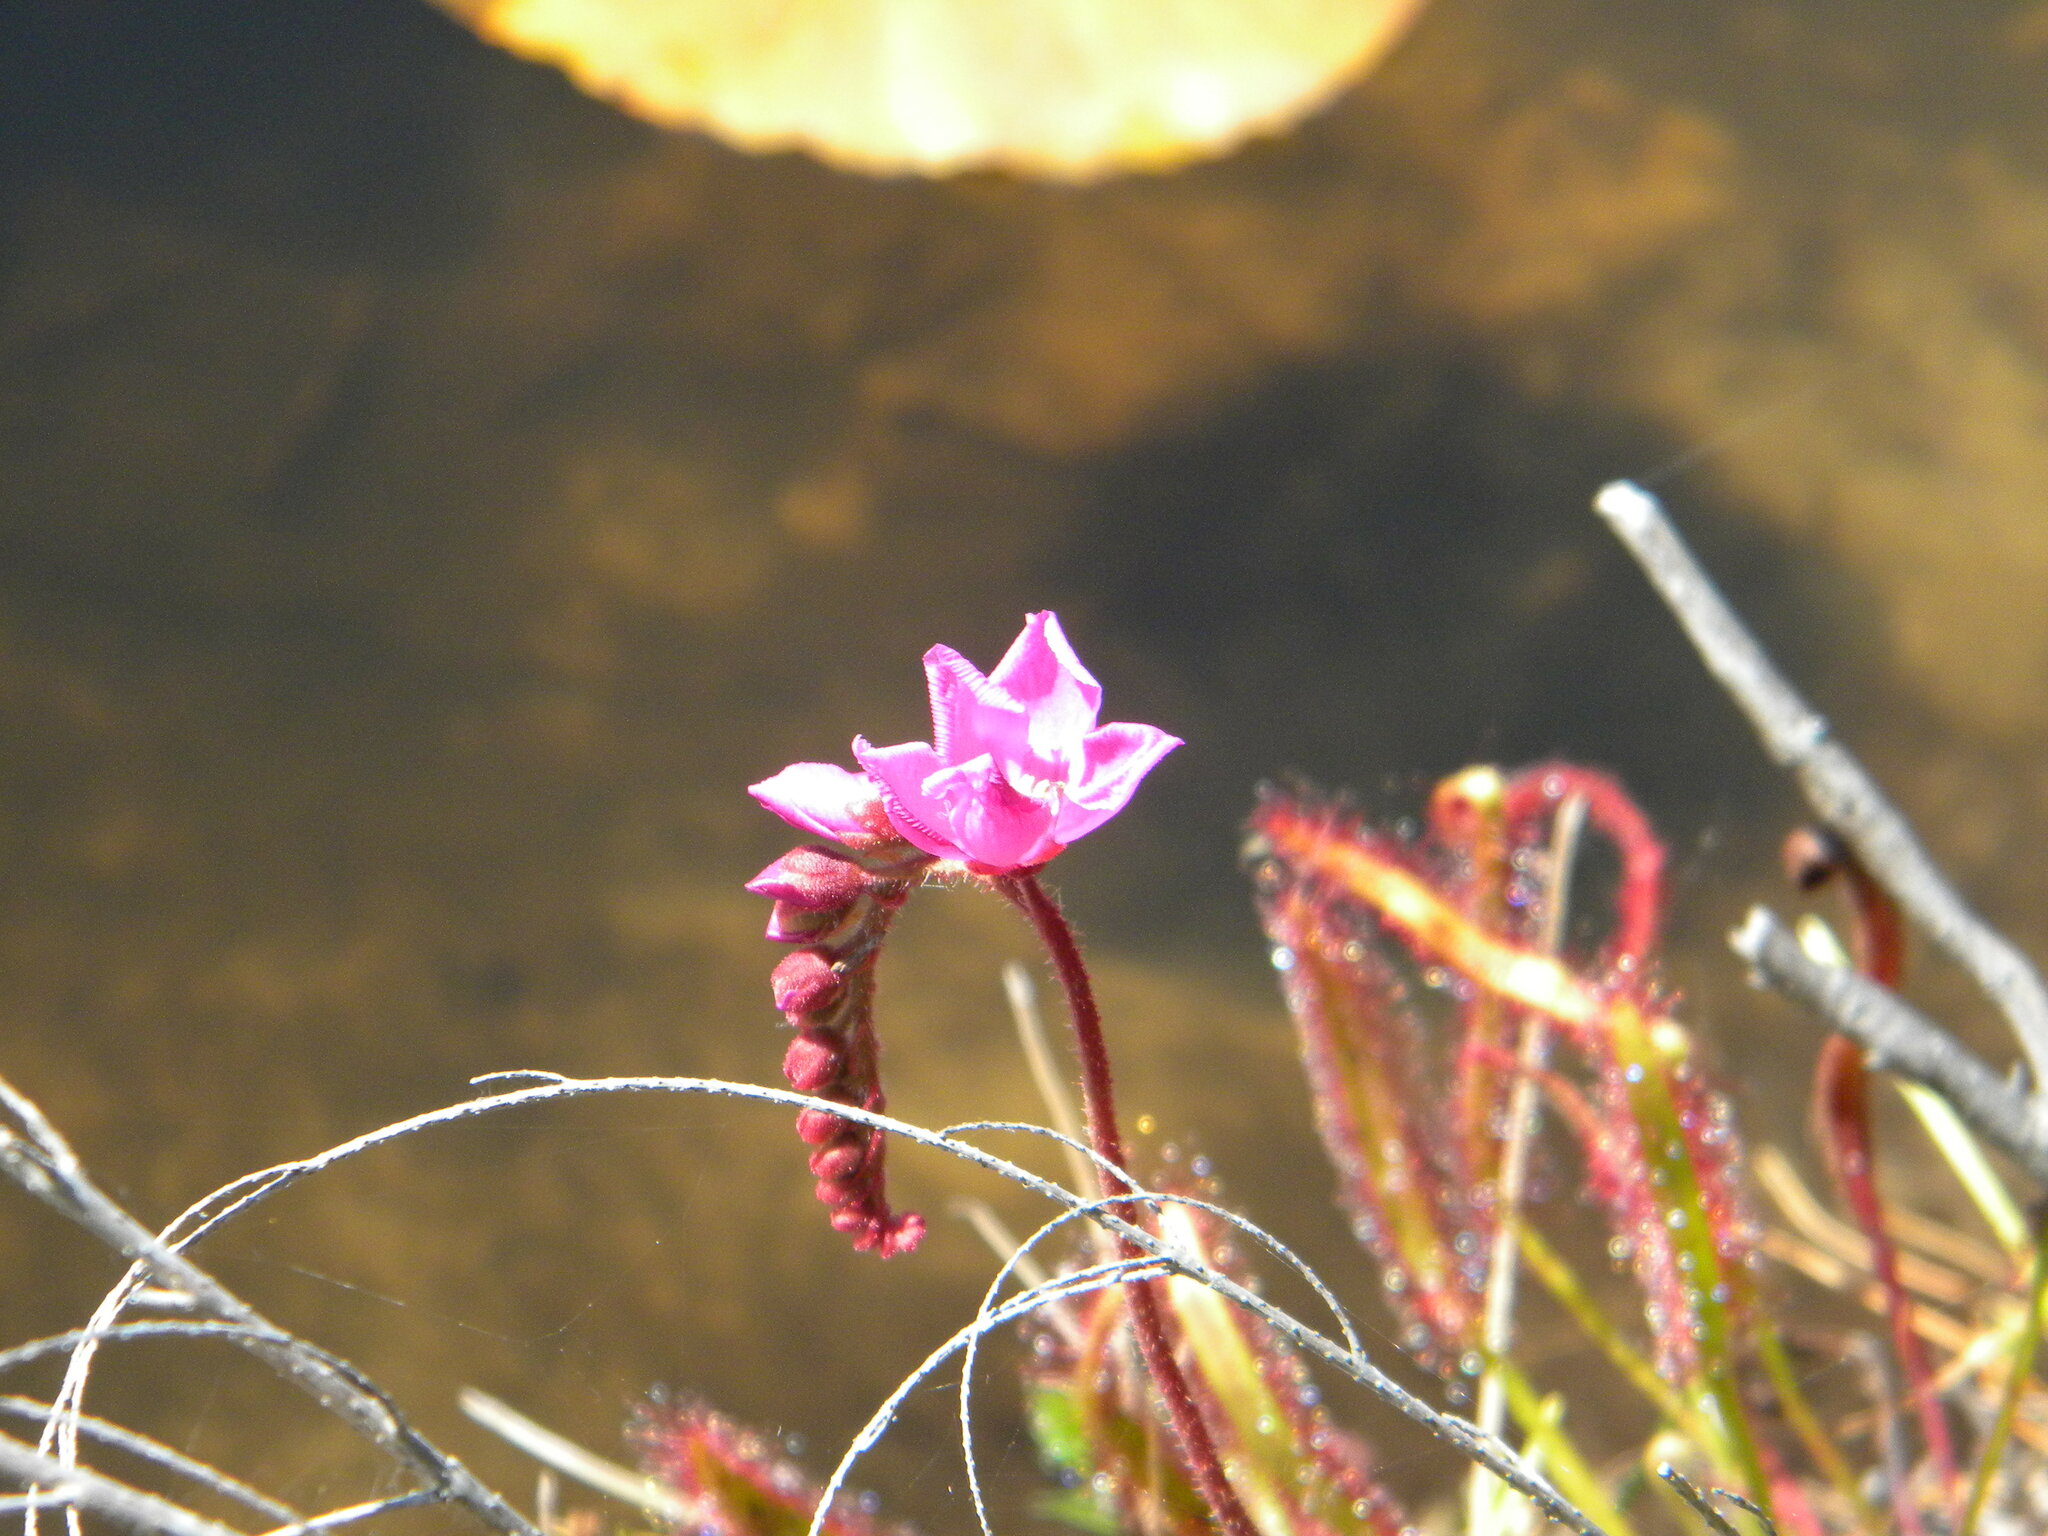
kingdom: Plantae
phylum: Tracheophyta
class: Magnoliopsida
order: Caryophyllales
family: Droseraceae
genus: Drosera
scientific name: Drosera capensis
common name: Cape sundew
